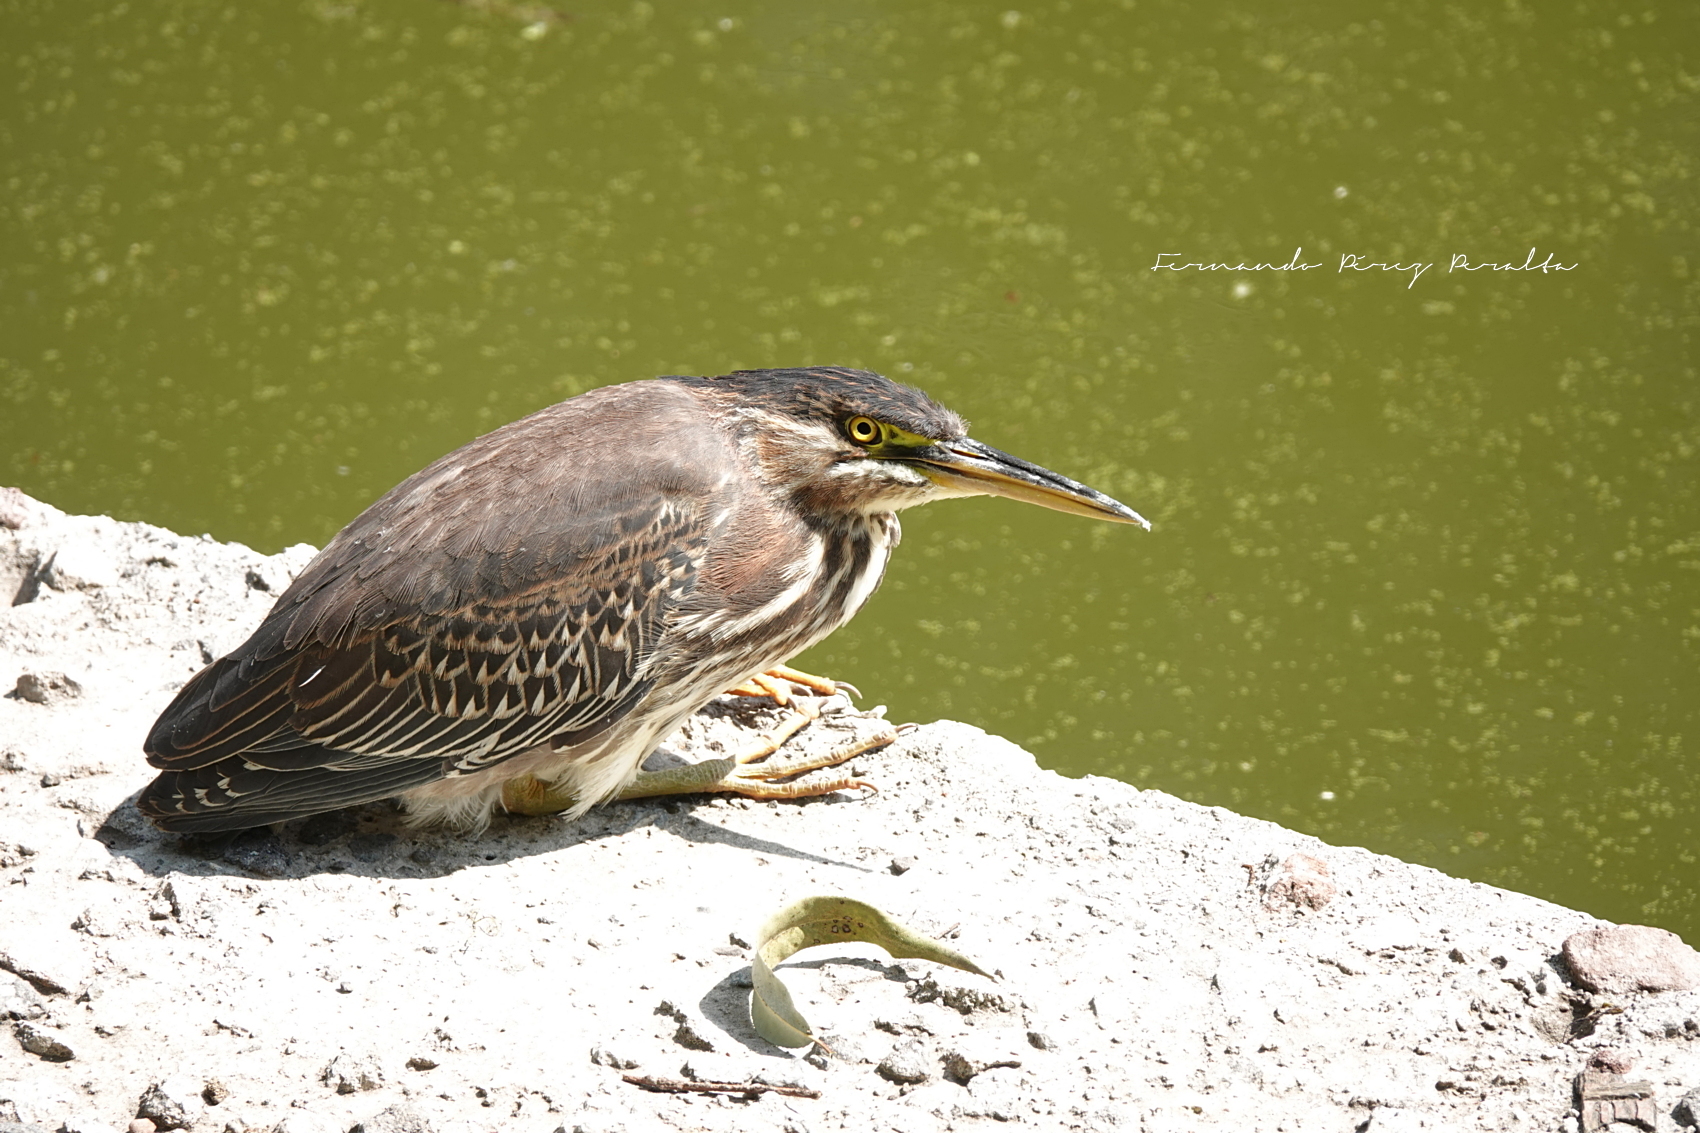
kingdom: Animalia
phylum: Chordata
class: Aves
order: Pelecaniformes
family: Ardeidae
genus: Butorides
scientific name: Butorides virescens
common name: Green heron
